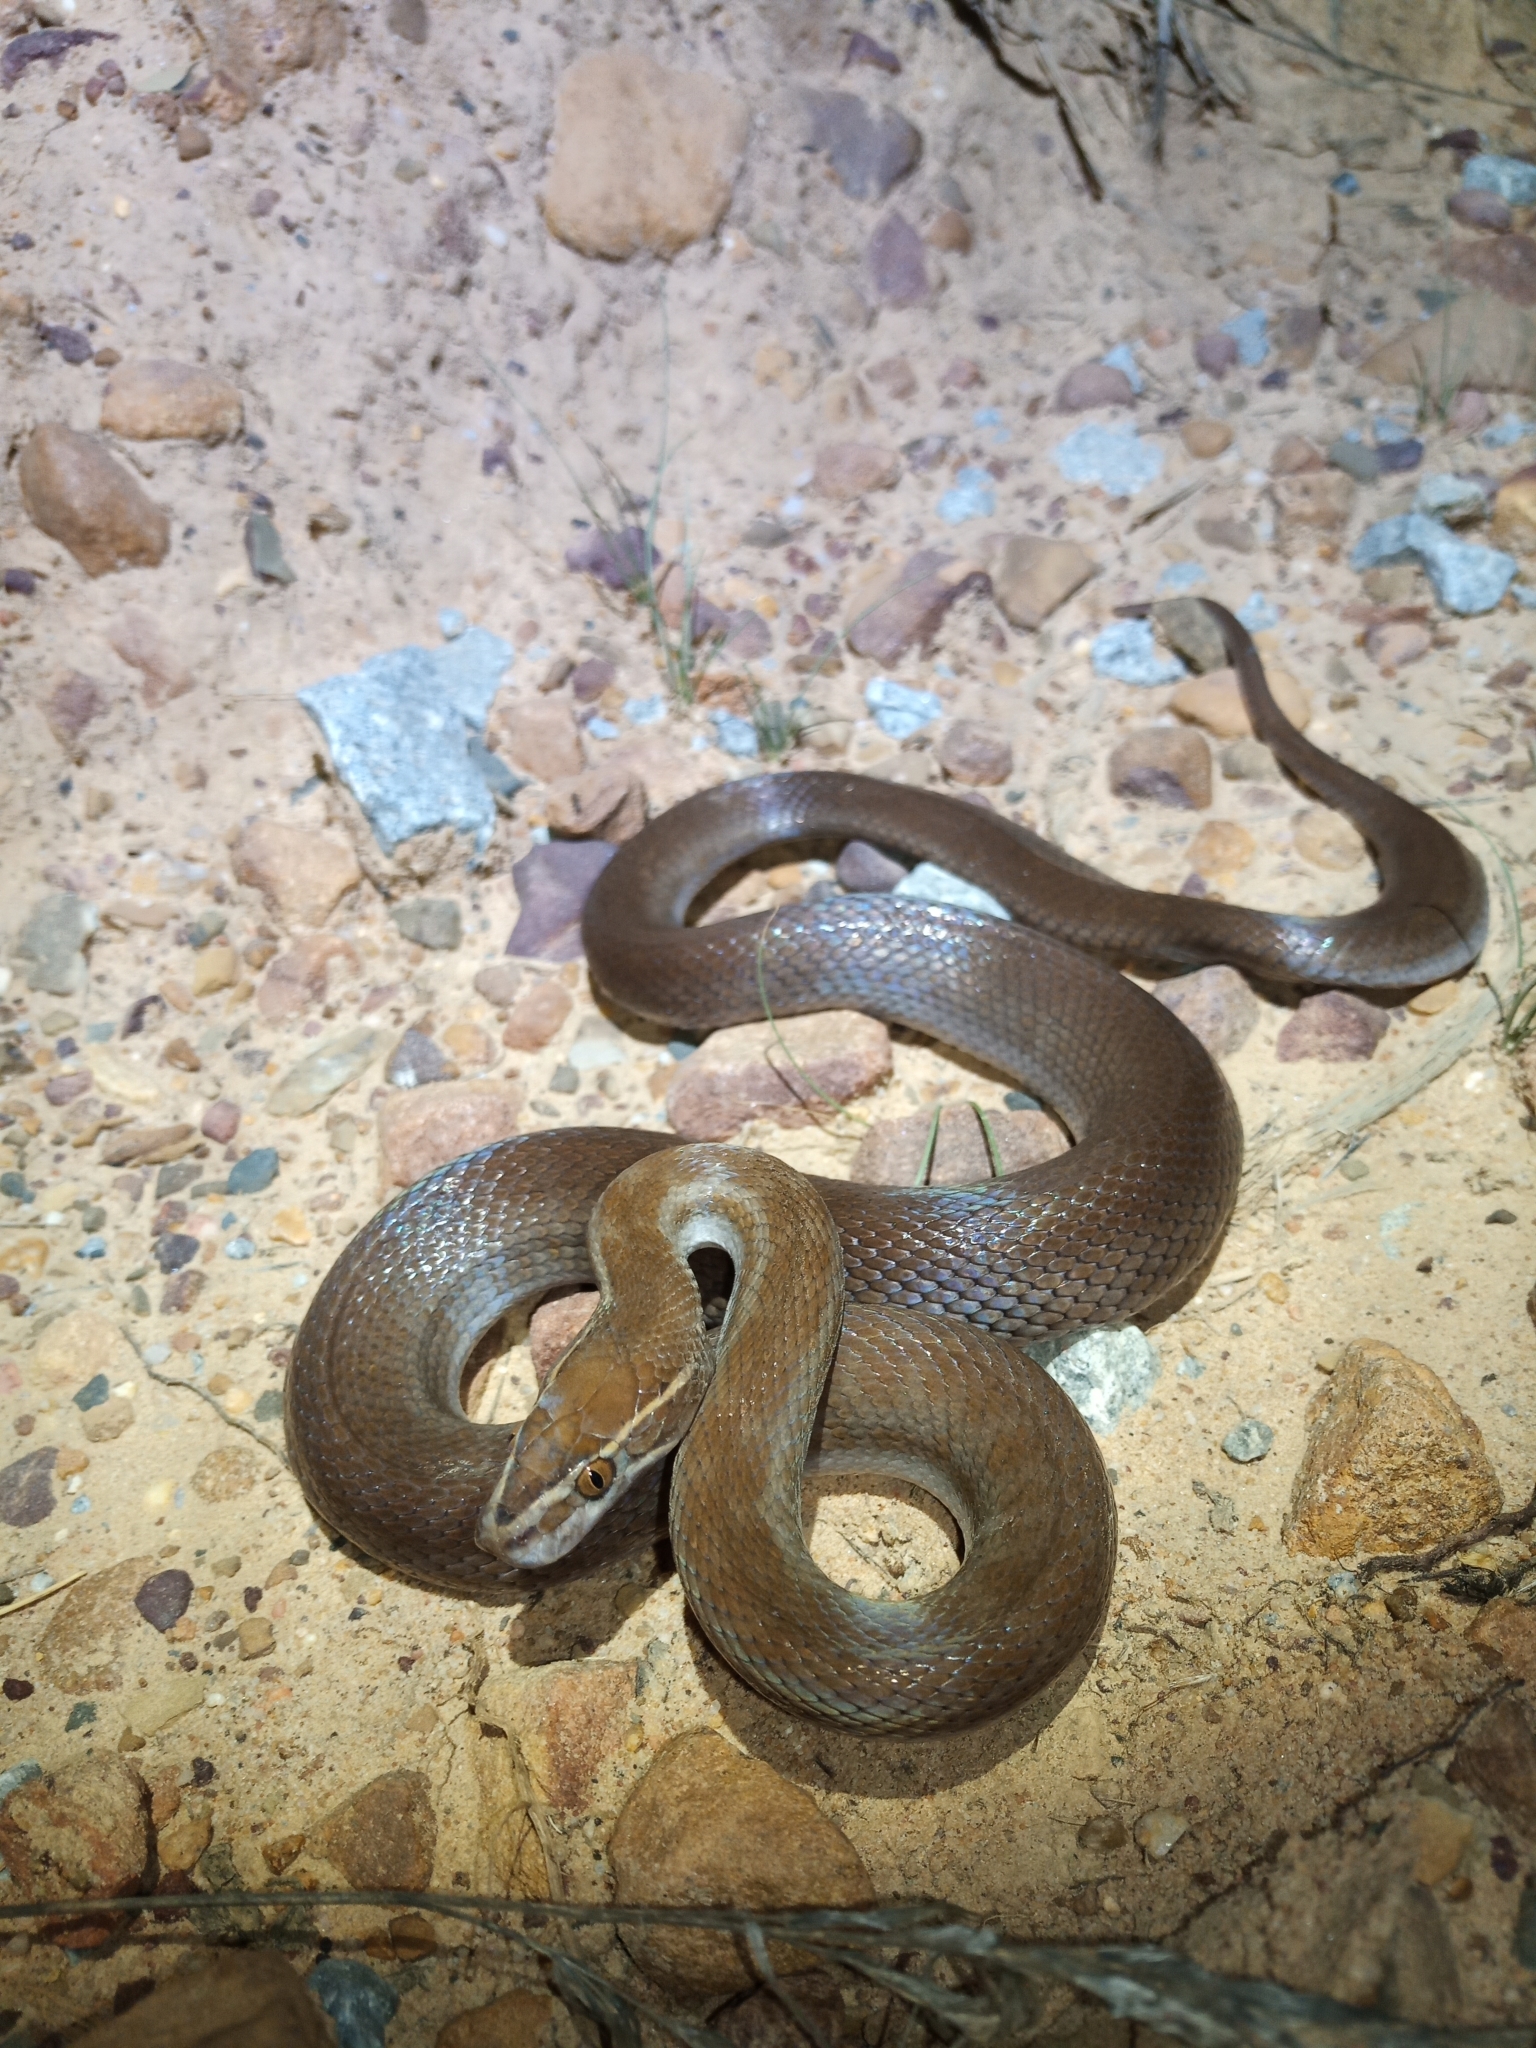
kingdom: Animalia
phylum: Chordata
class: Squamata
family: Lamprophiidae
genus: Boaedon
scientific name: Boaedon capensis
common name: Brown house snake
